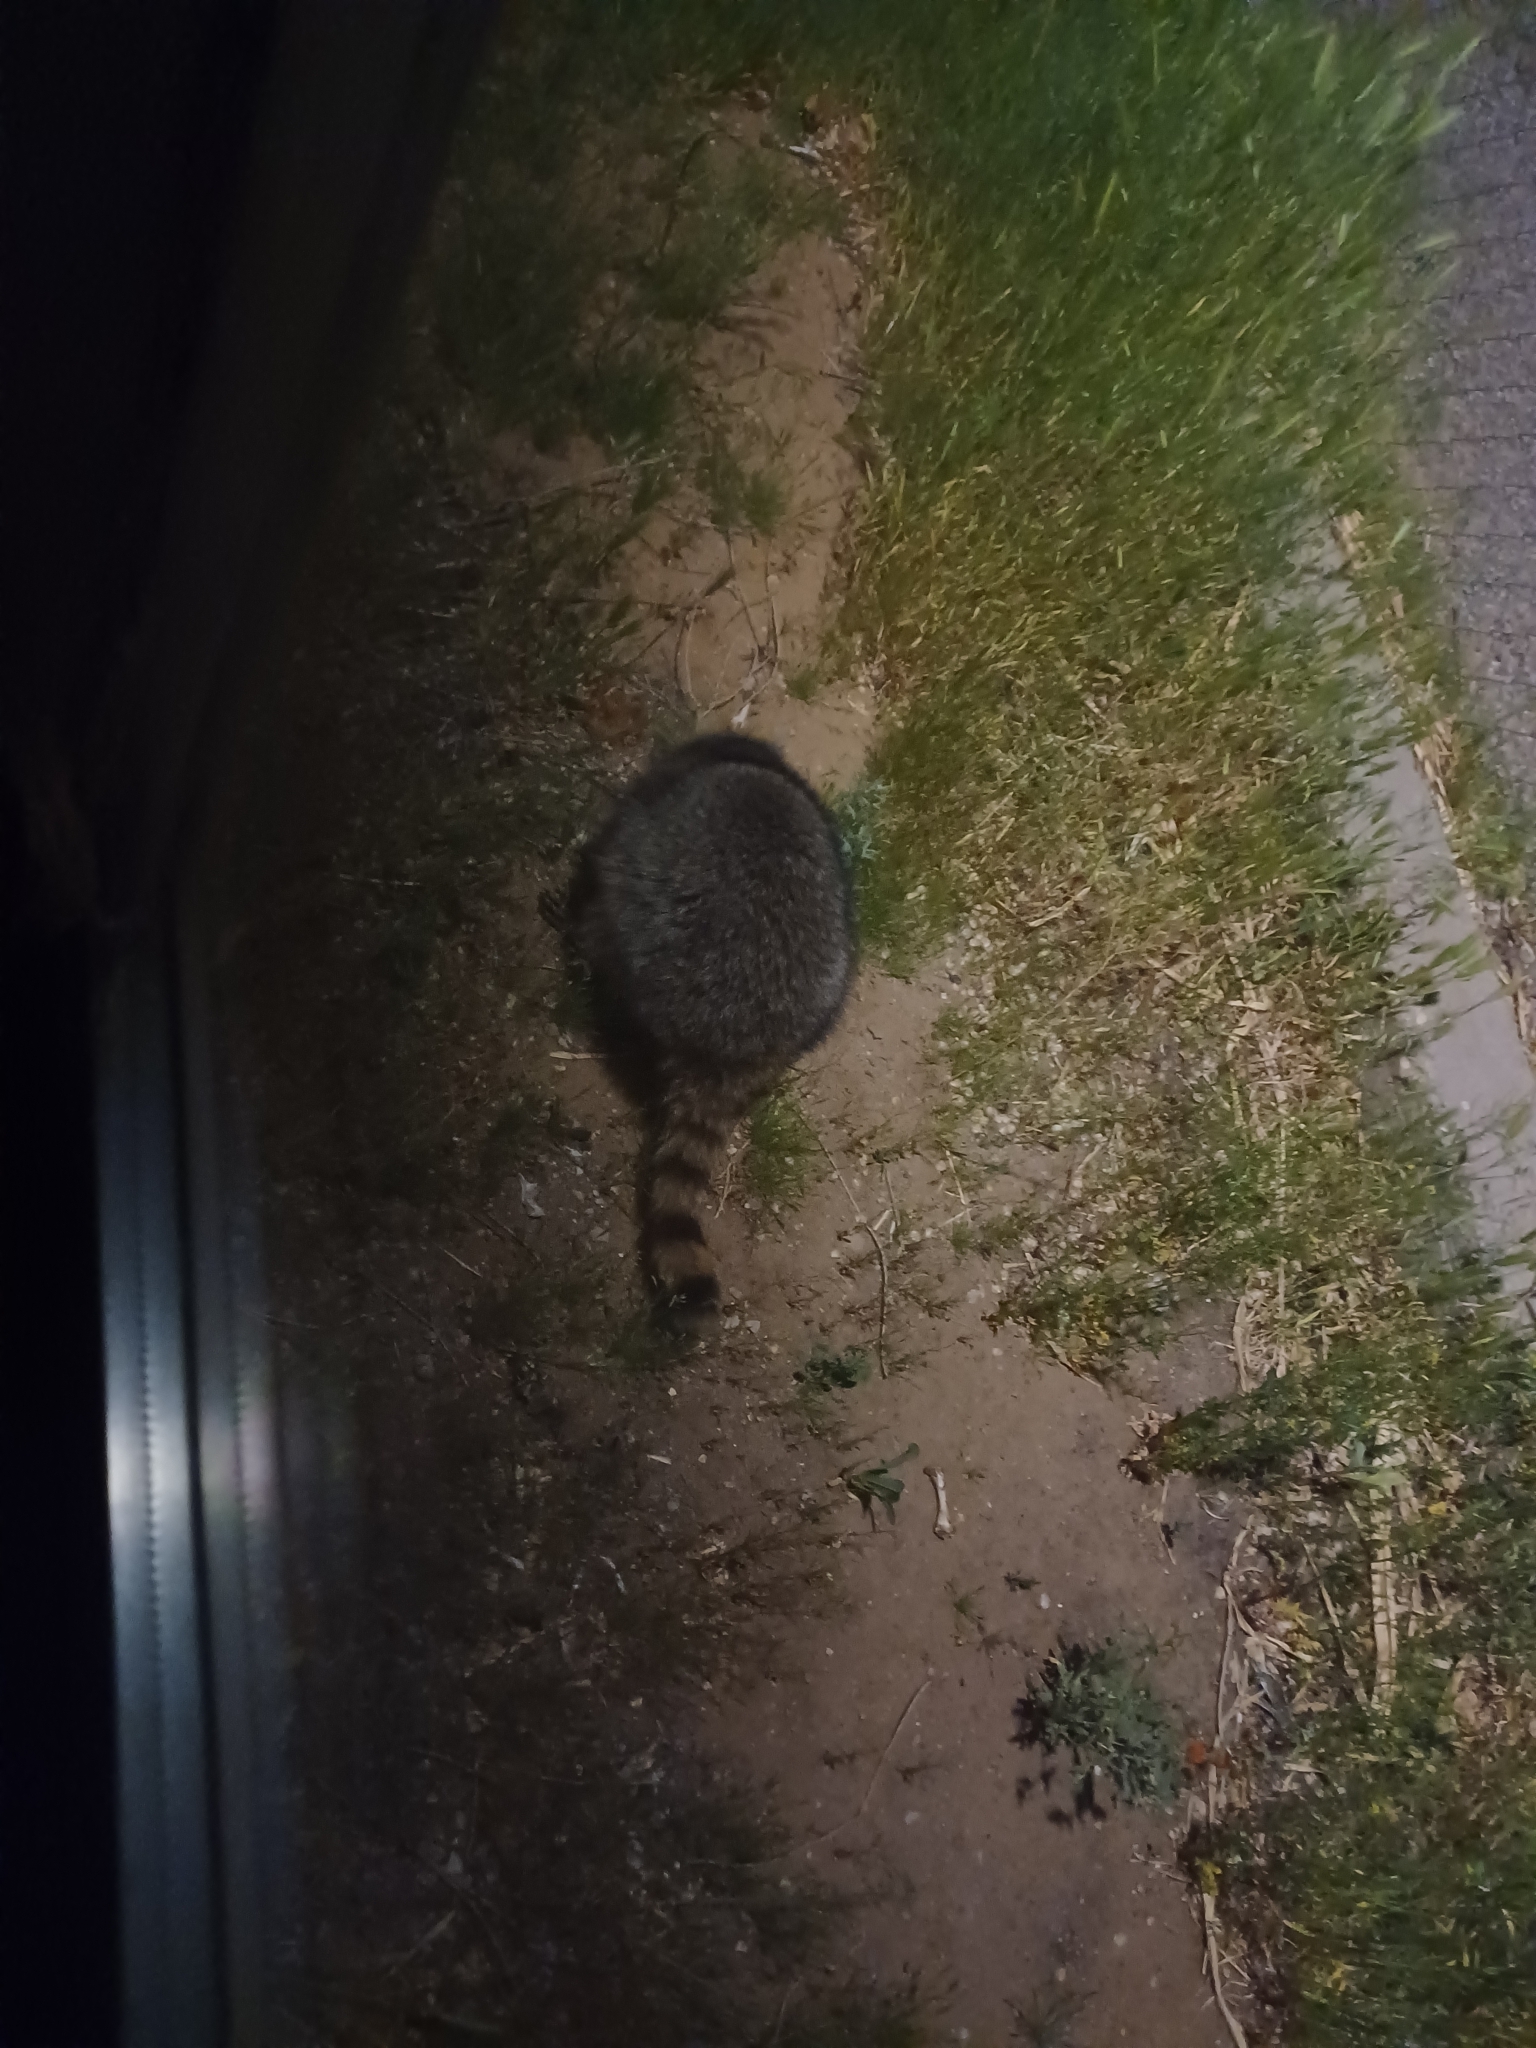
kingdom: Animalia
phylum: Chordata
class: Mammalia
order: Carnivora
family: Procyonidae
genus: Procyon
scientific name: Procyon lotor
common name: Raccoon
